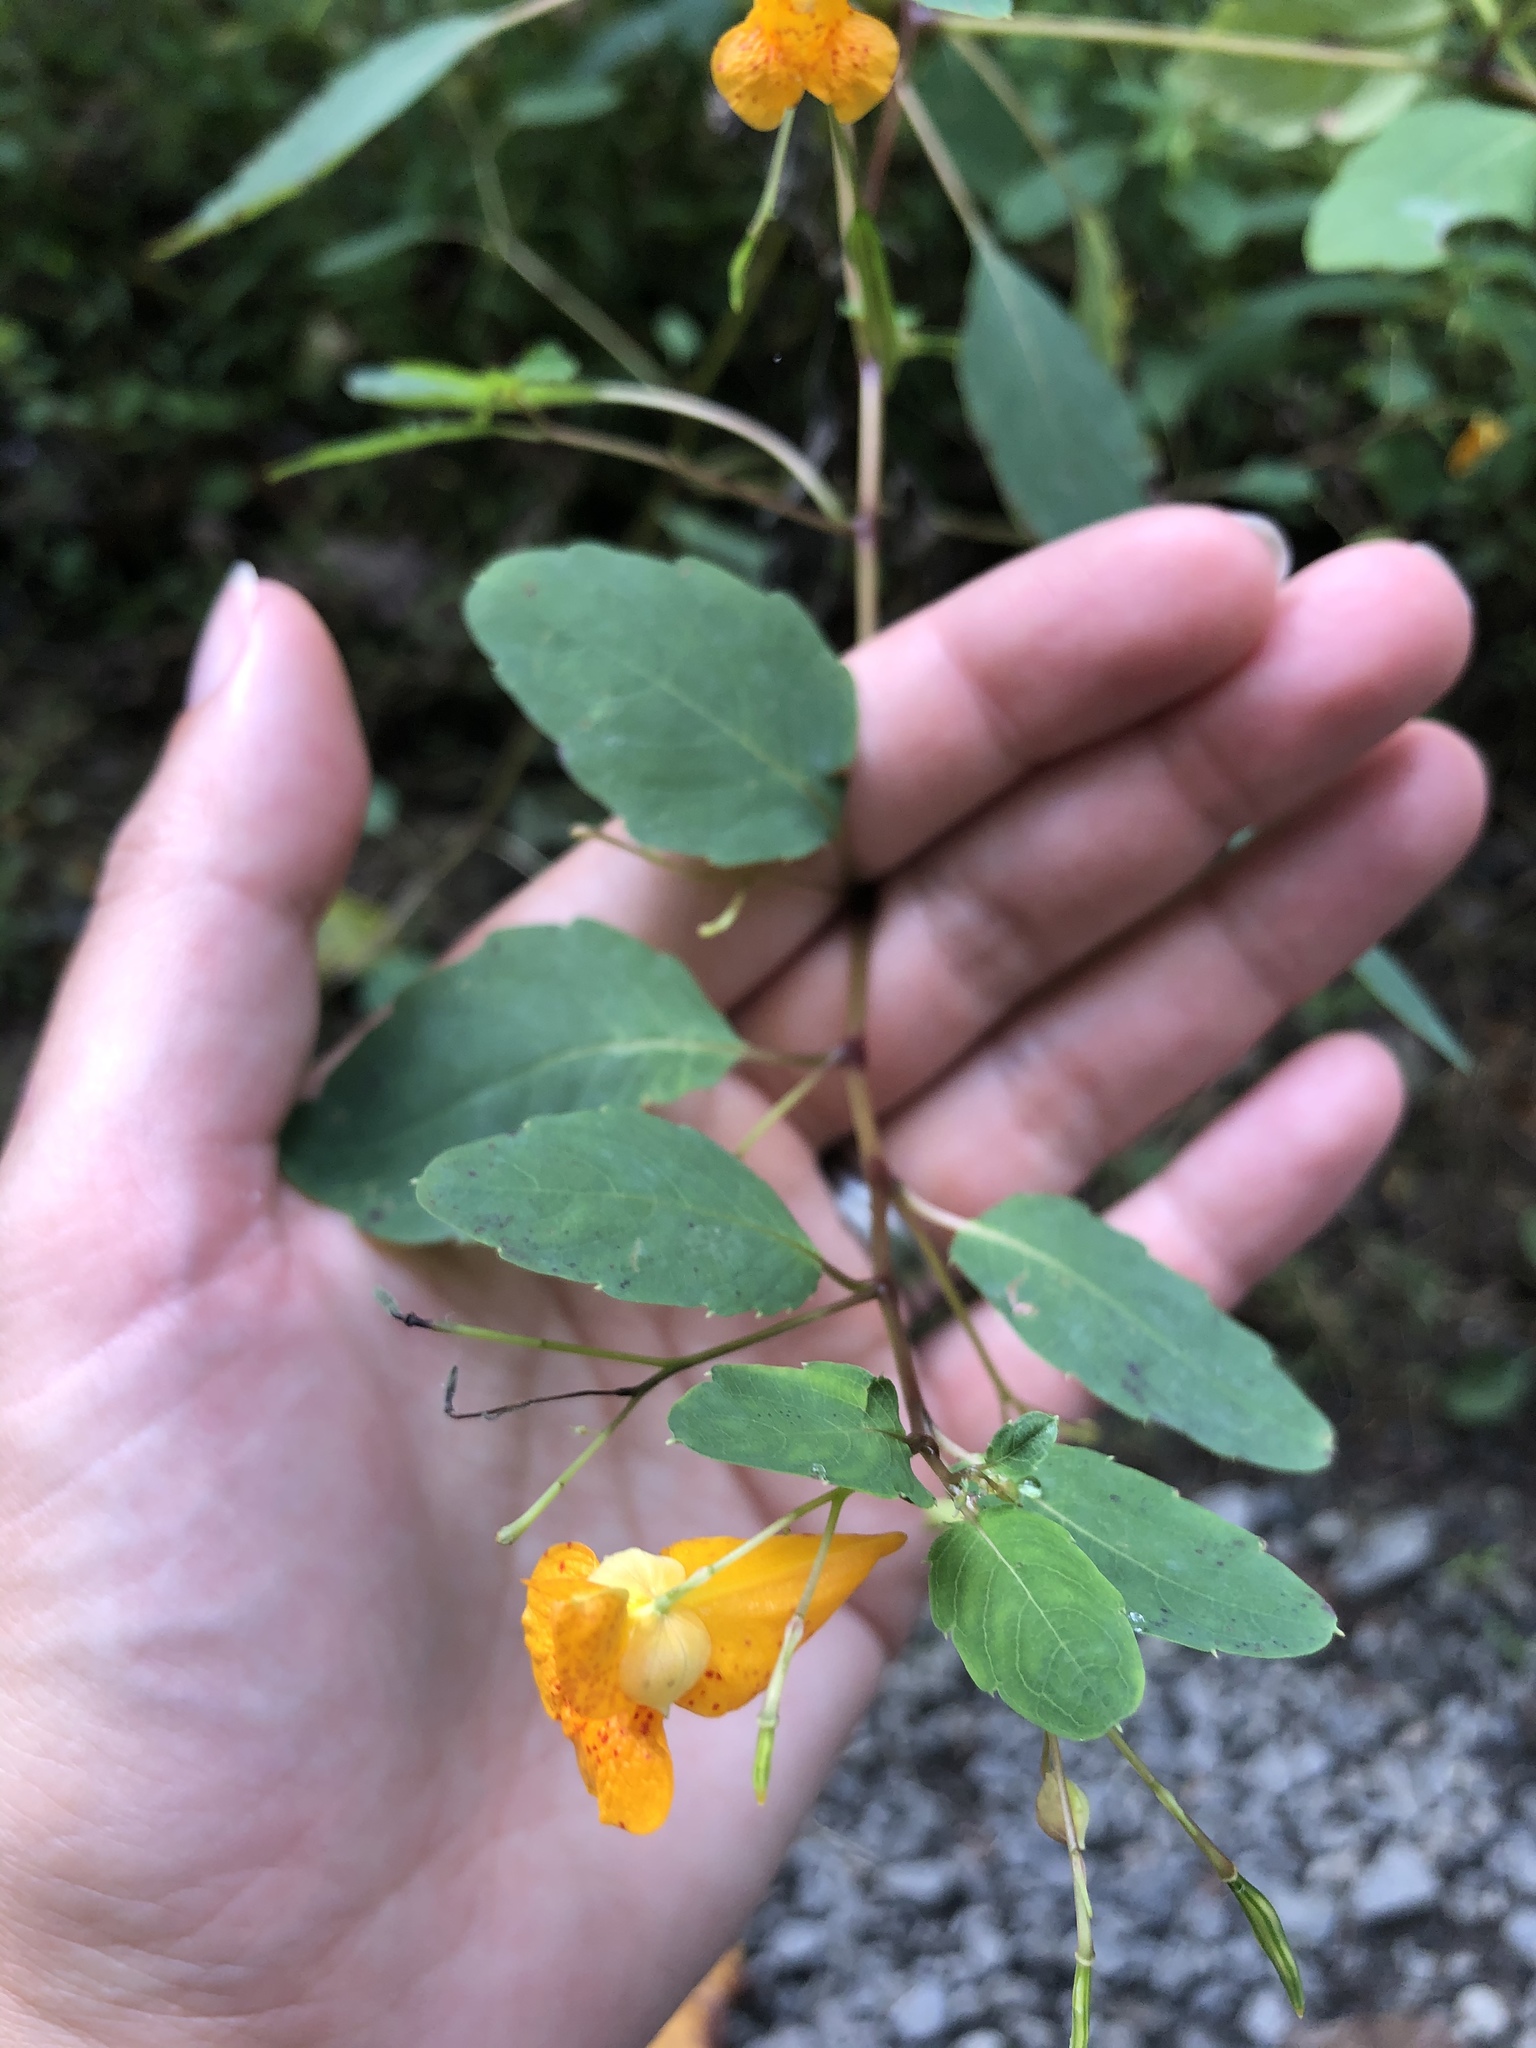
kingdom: Plantae
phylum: Tracheophyta
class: Magnoliopsida
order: Ericales
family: Balsaminaceae
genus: Impatiens
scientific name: Impatiens capensis
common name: Orange balsam
